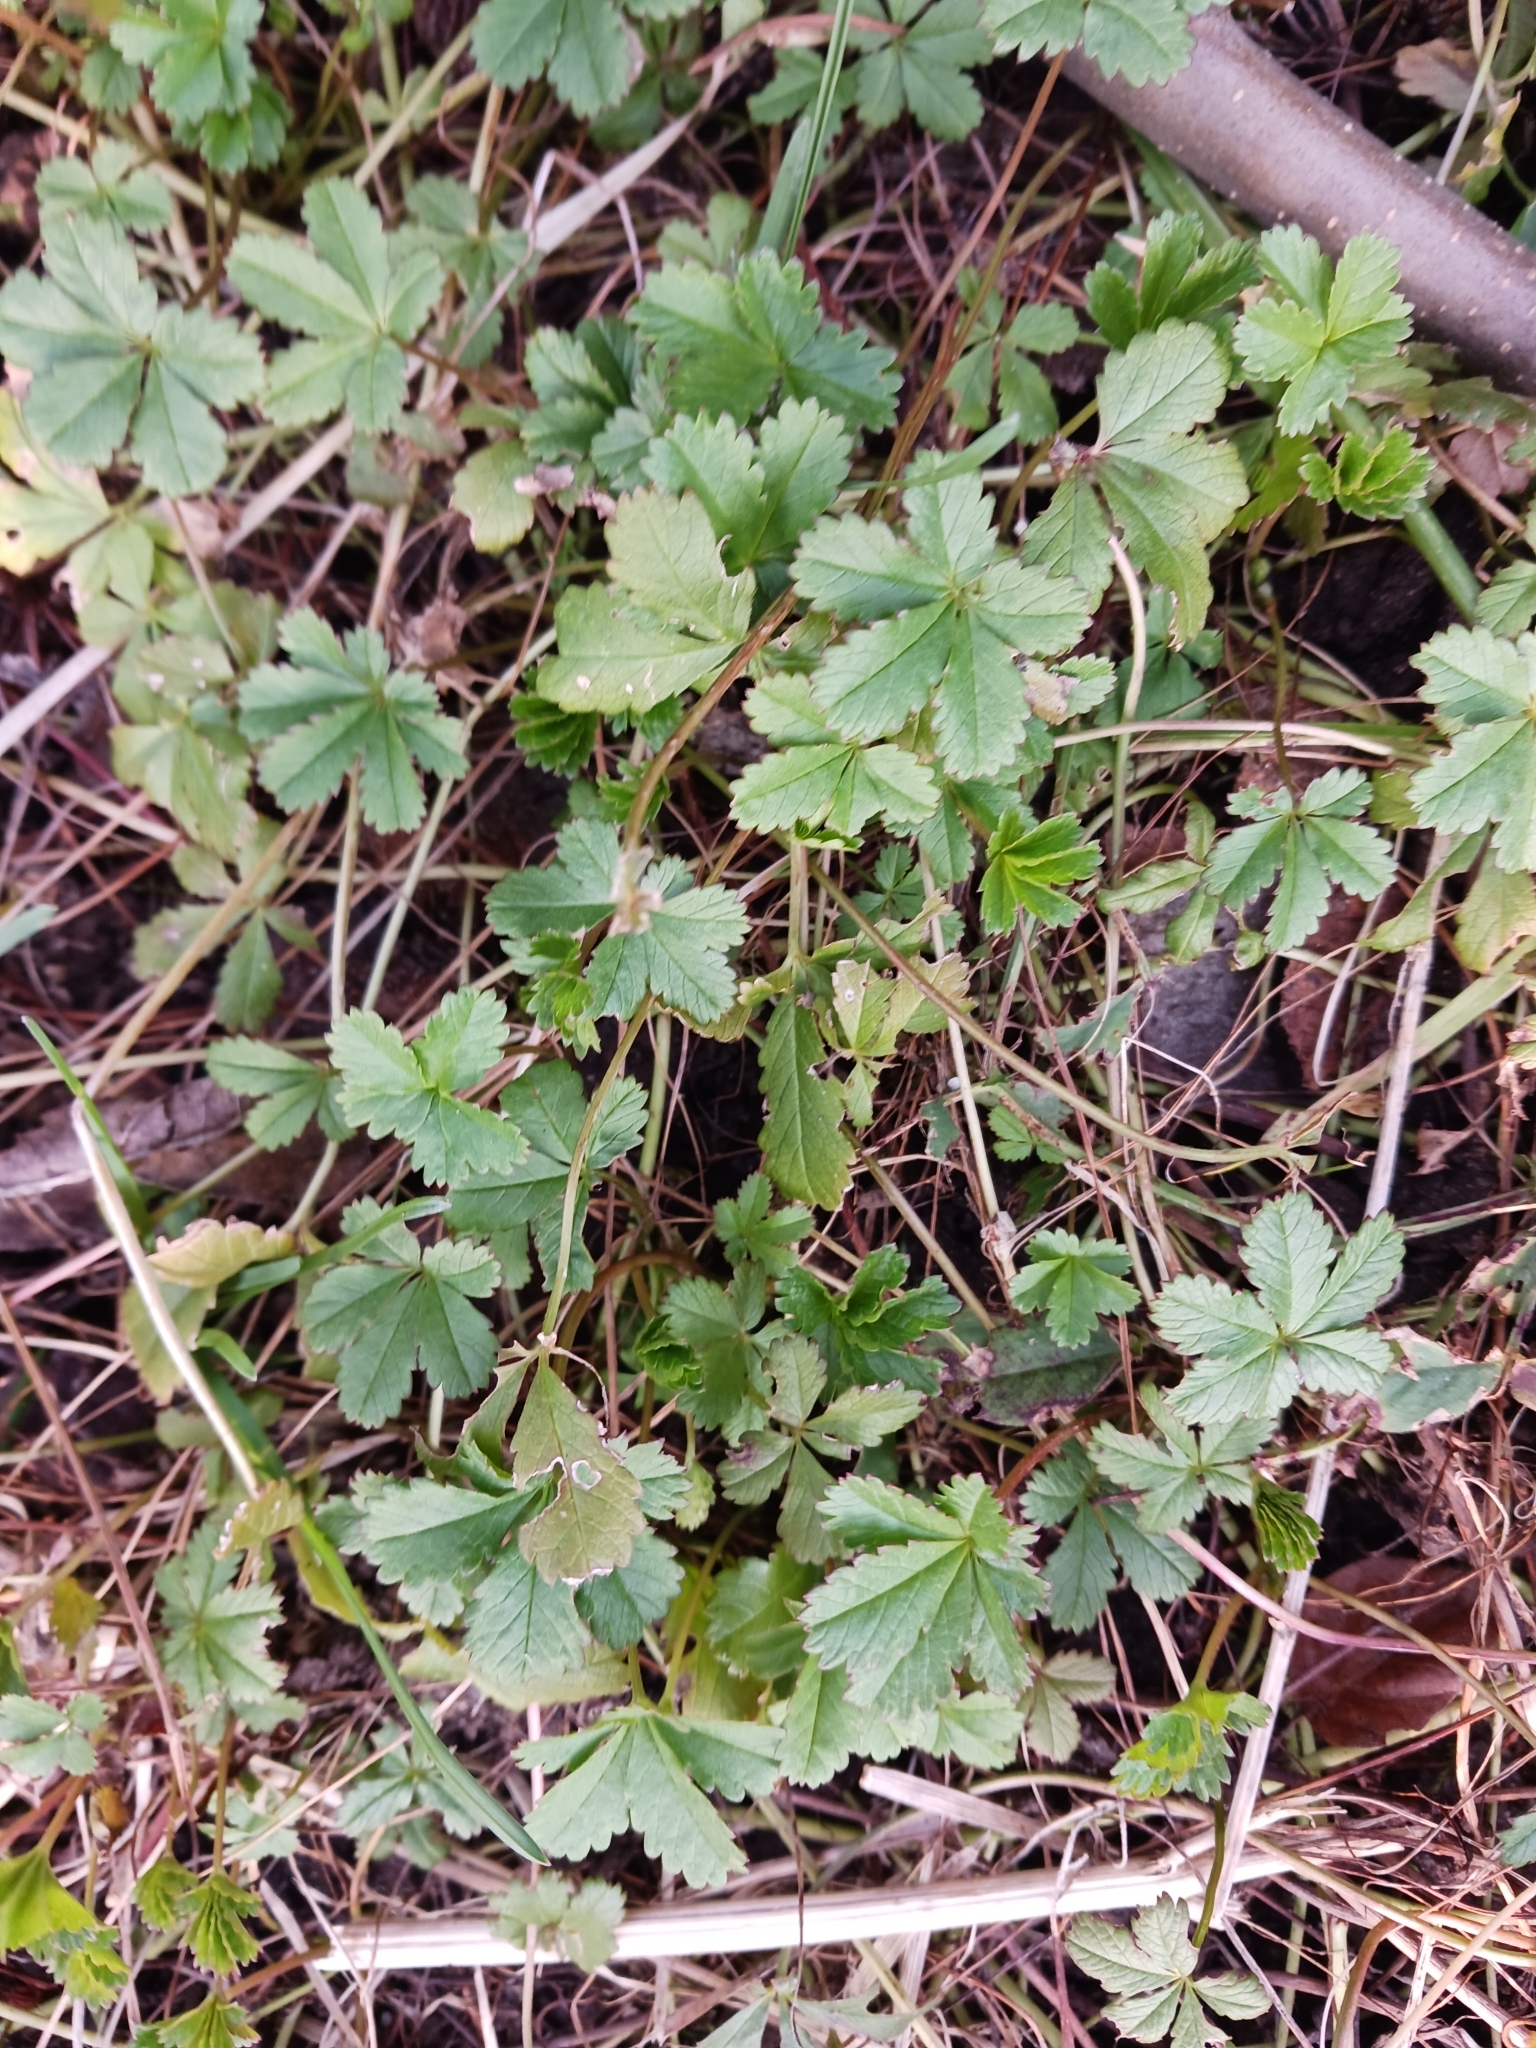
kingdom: Plantae
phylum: Tracheophyta
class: Magnoliopsida
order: Rosales
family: Rosaceae
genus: Potentilla
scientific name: Potentilla reptans
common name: Creeping cinquefoil
